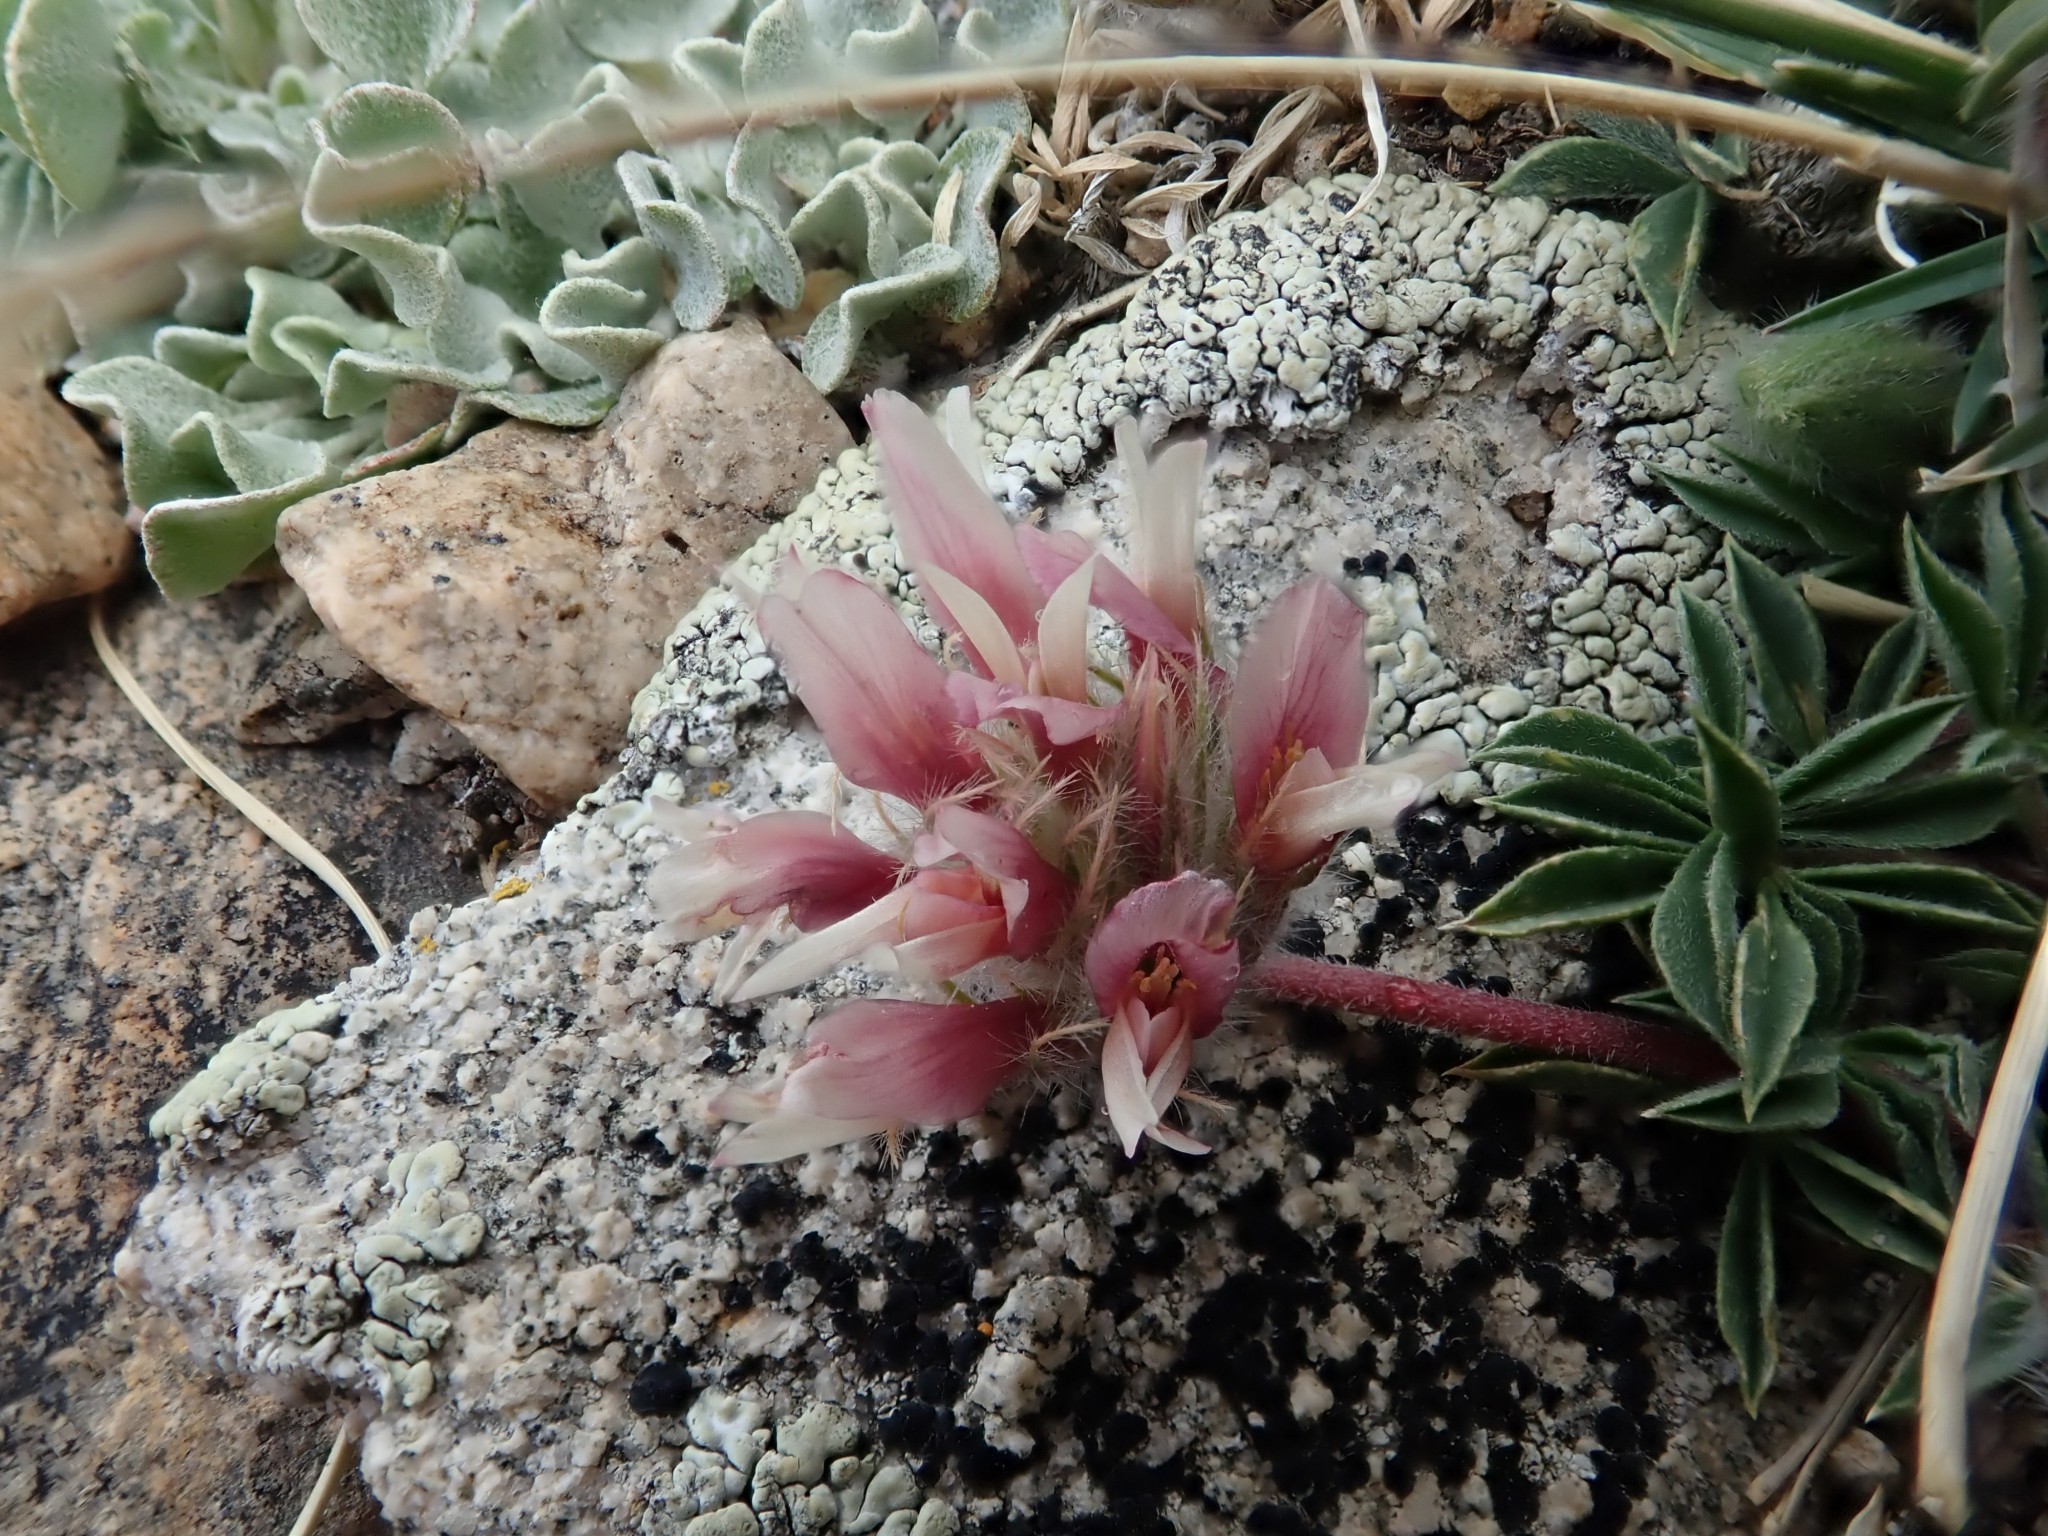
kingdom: Plantae
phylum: Tracheophyta
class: Magnoliopsida
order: Fabales
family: Fabaceae
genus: Trifolium
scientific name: Trifolium andersonii
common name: Anderson's clover
